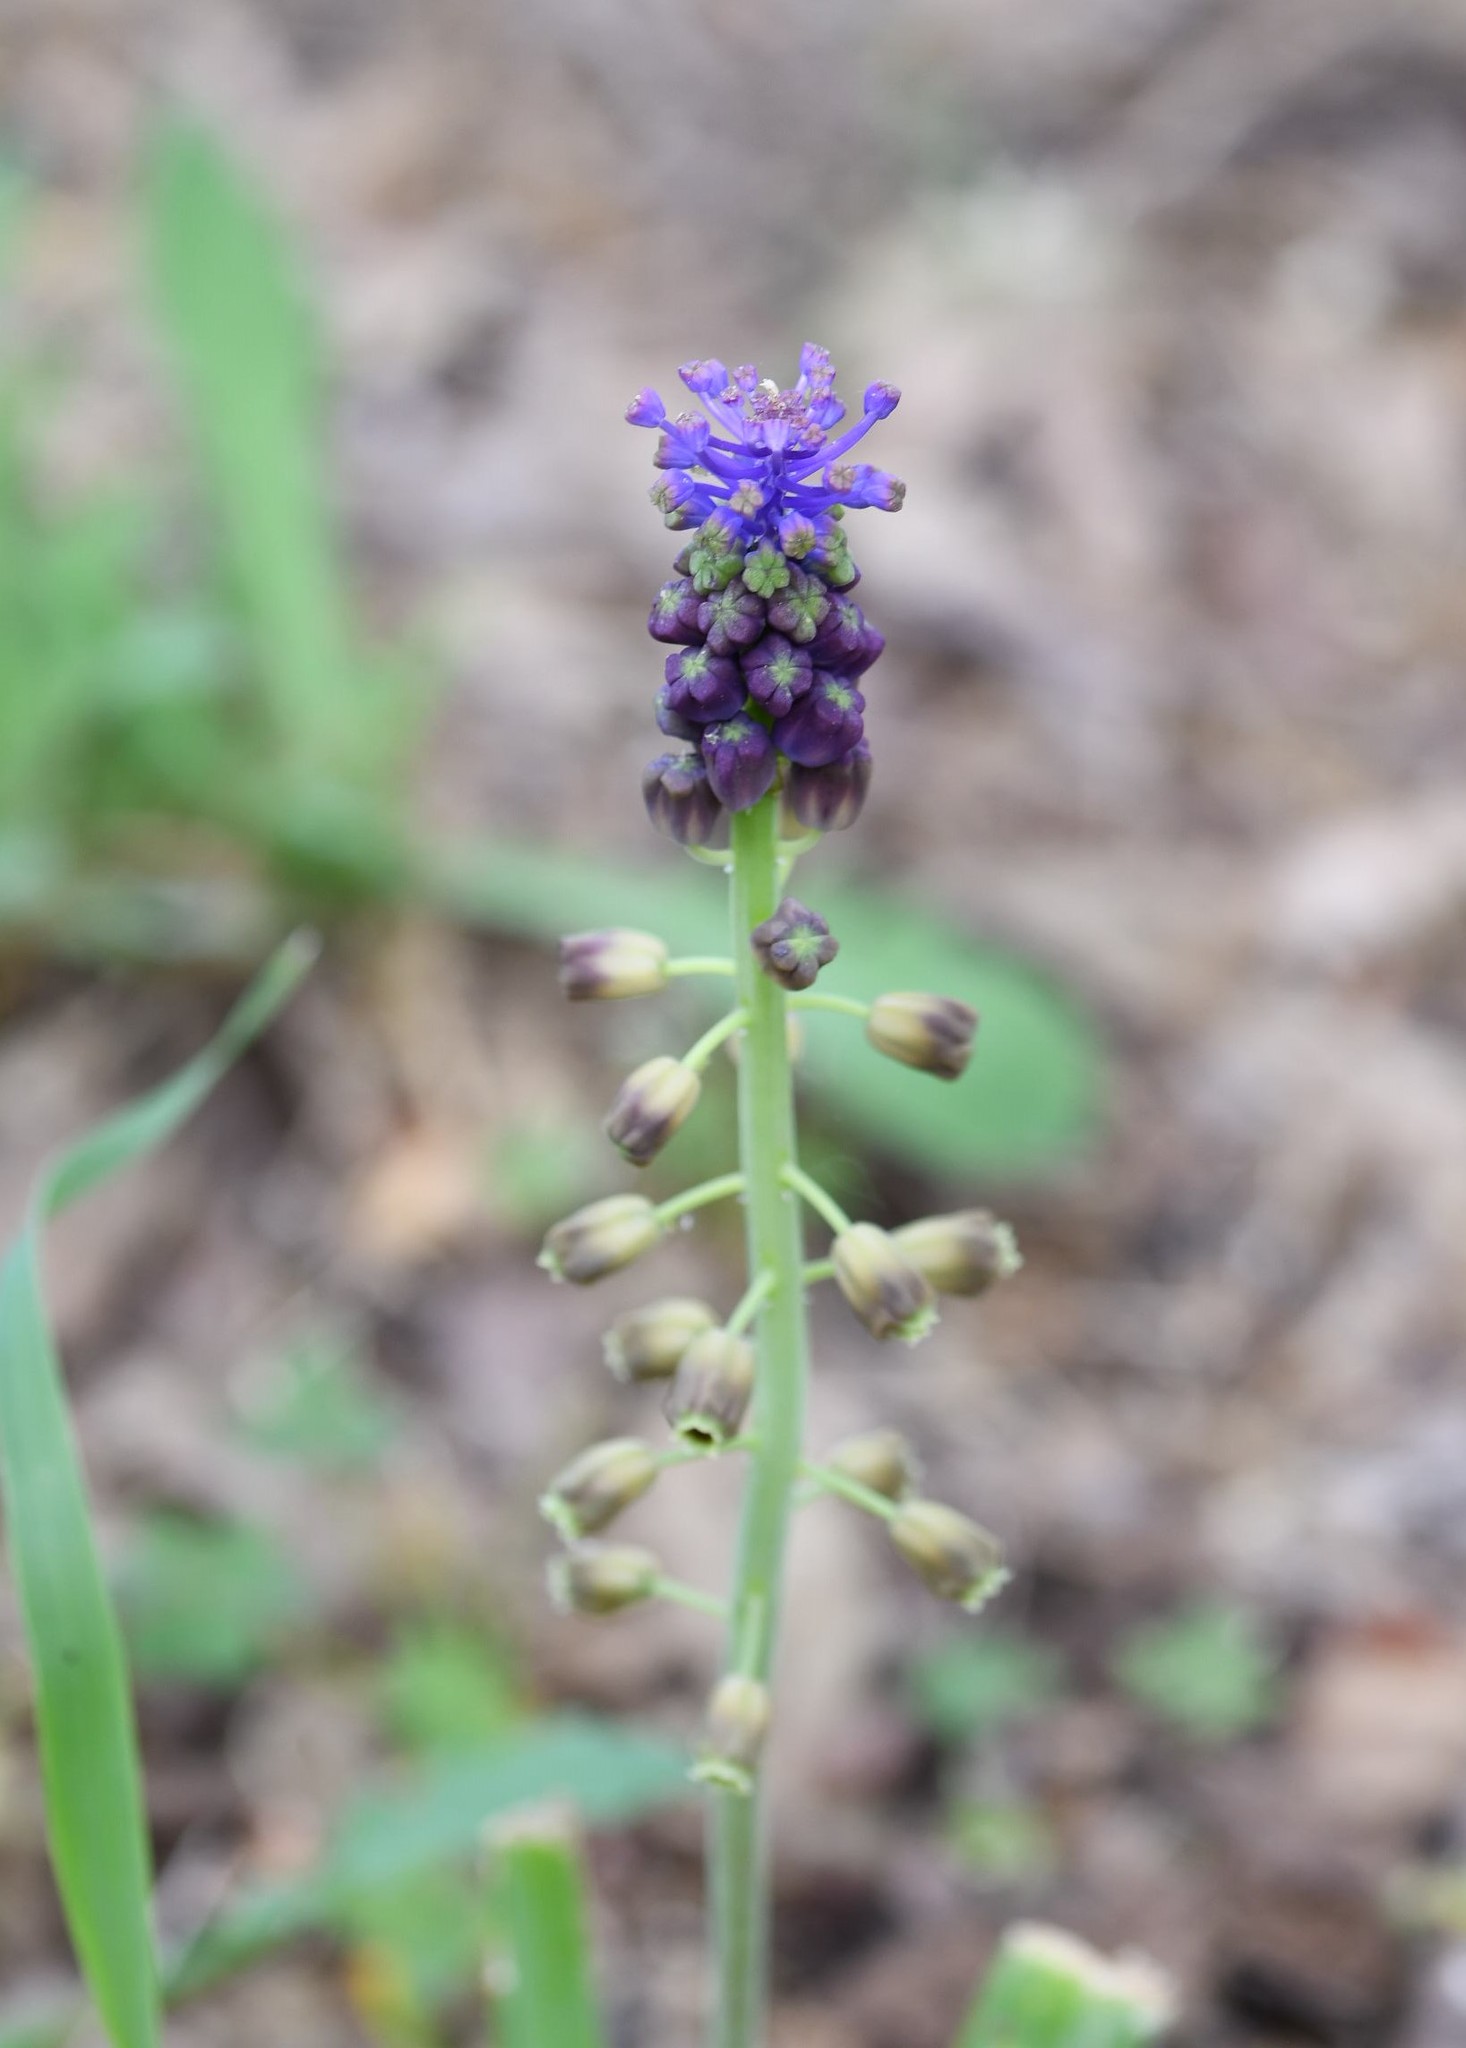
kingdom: Plantae
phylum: Tracheophyta
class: Liliopsida
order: Asparagales
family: Asparagaceae
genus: Muscari
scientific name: Muscari comosum
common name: Tassel hyacinth
